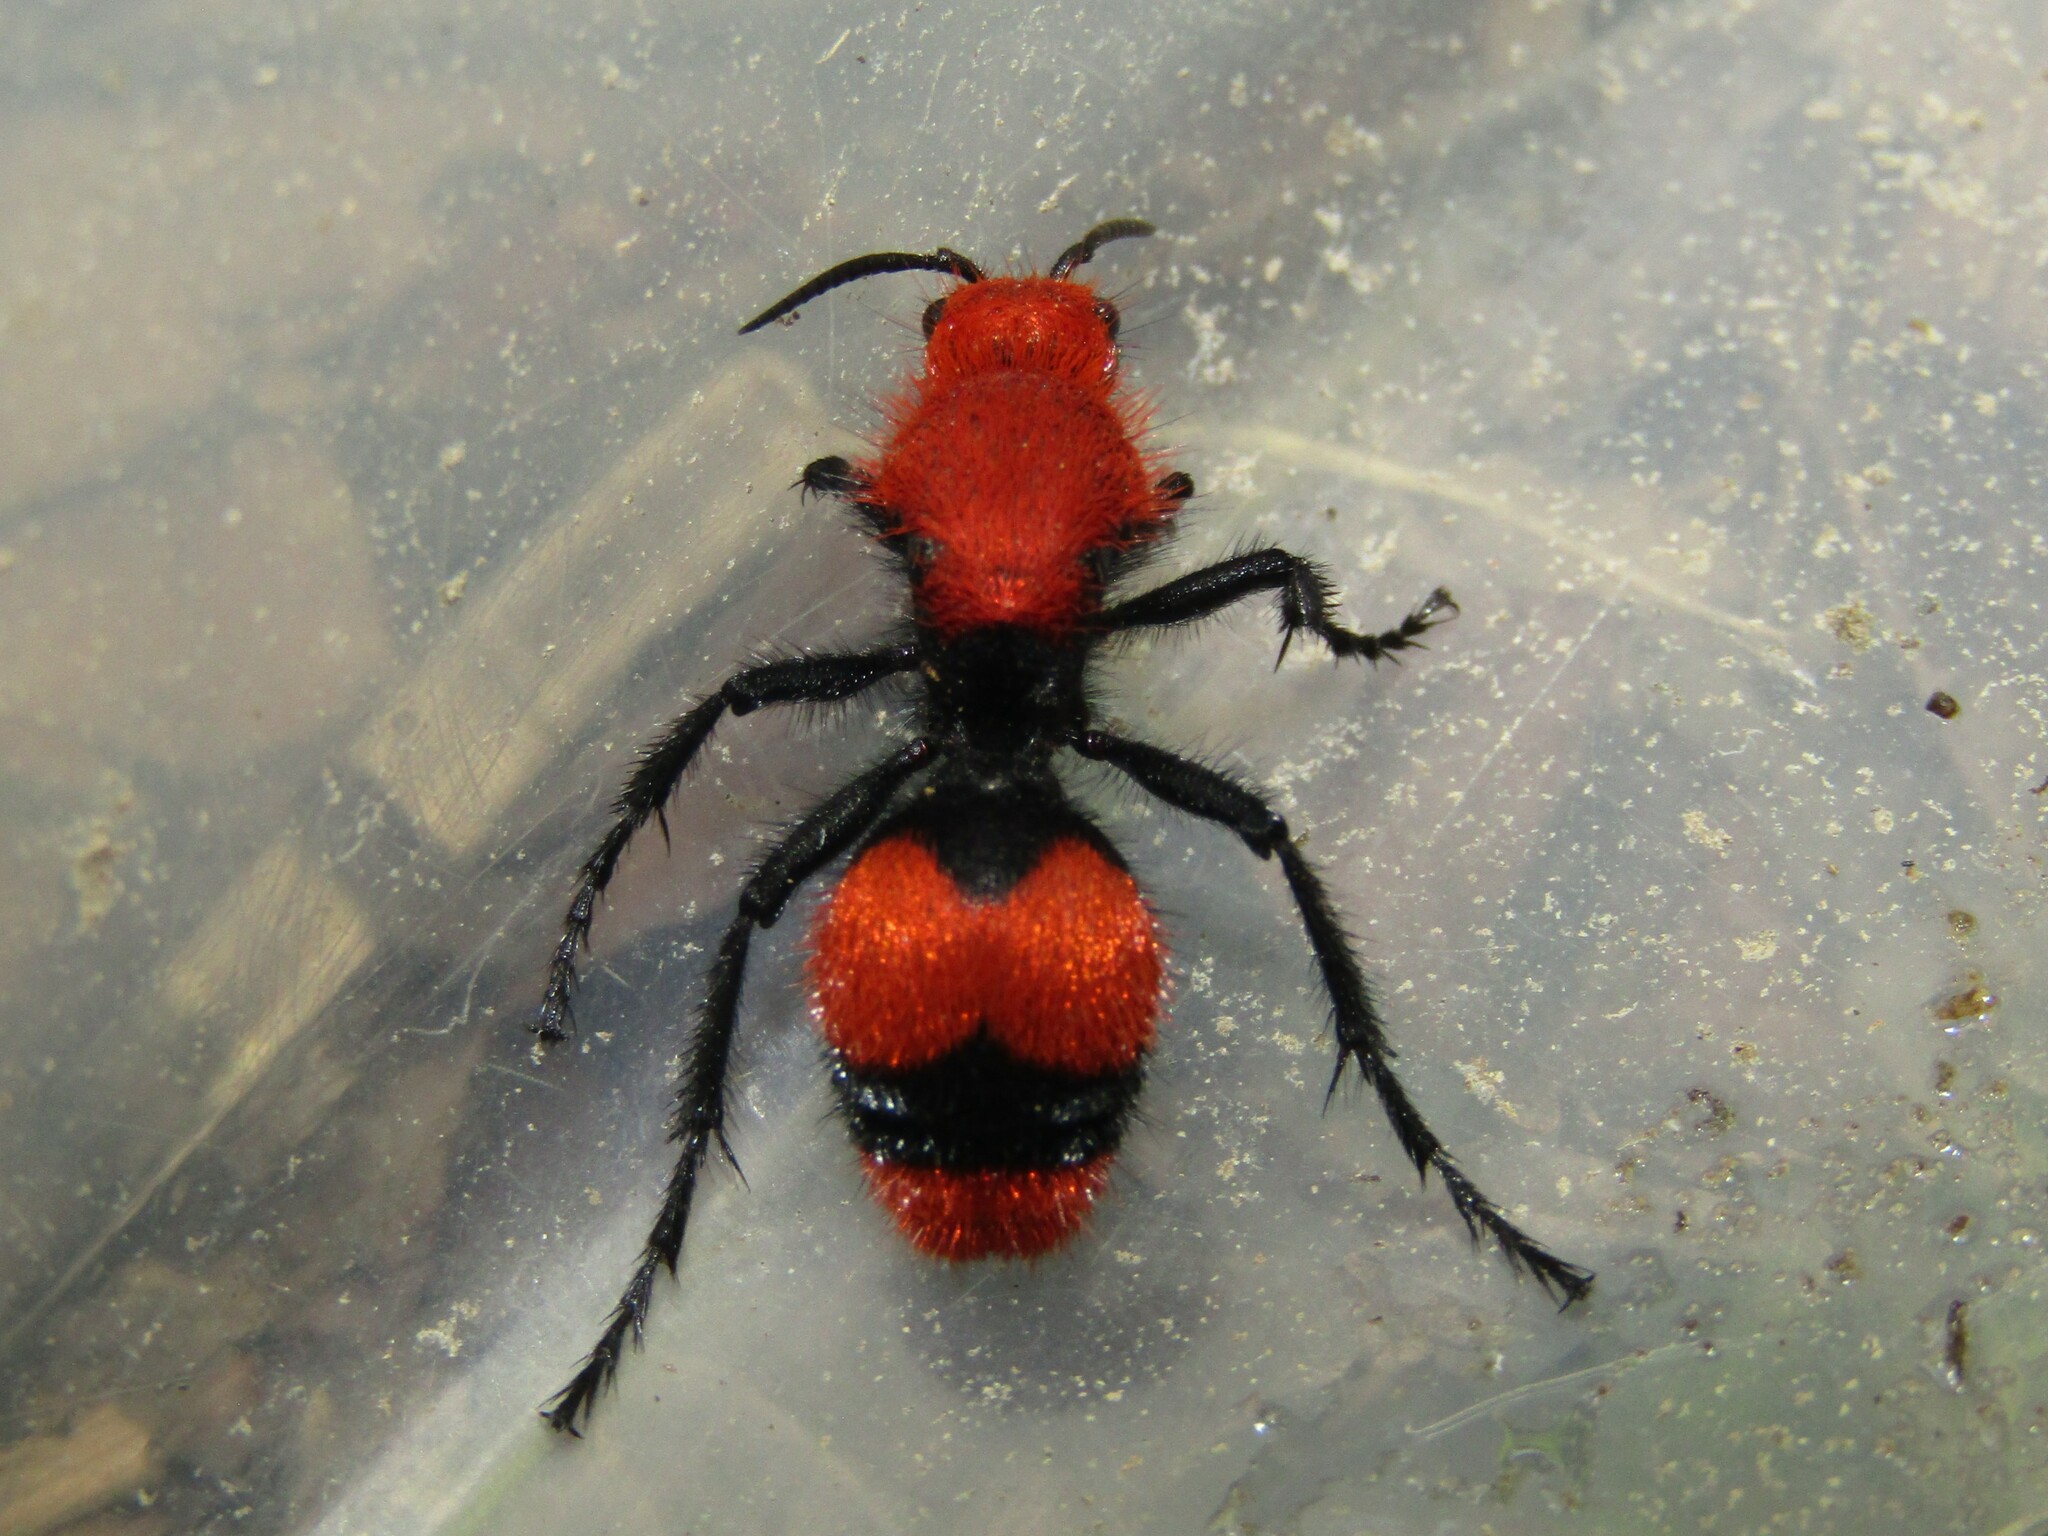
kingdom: Animalia
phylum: Arthropoda
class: Insecta
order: Hymenoptera
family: Mutillidae
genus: Dasymutilla
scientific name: Dasymutilla occidentalis
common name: Common eastern velvet ant
